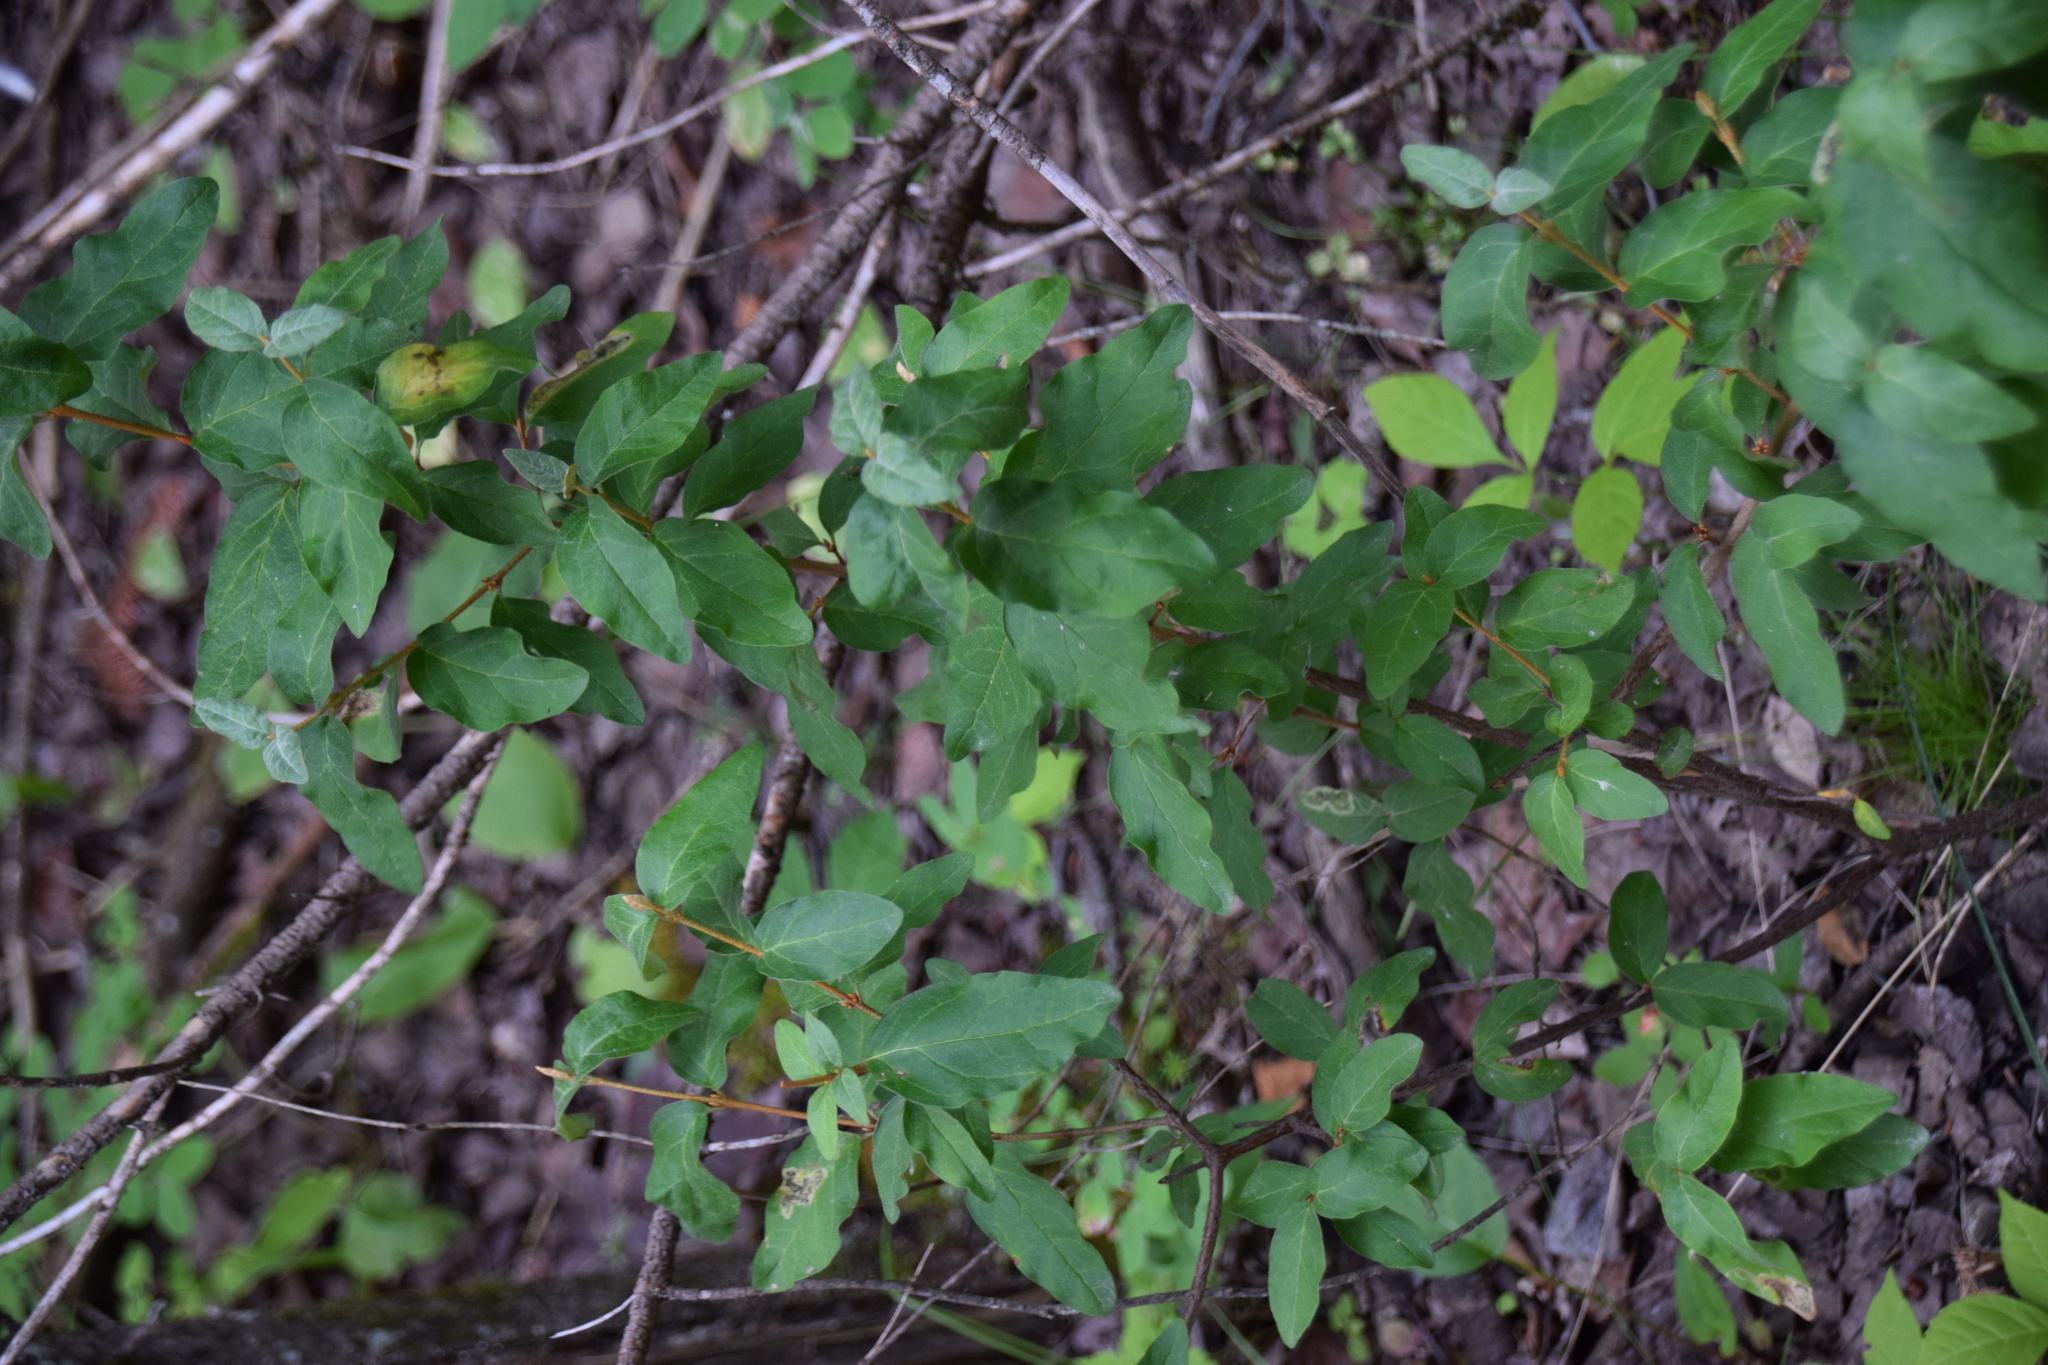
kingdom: Plantae
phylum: Tracheophyta
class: Magnoliopsida
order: Rosales
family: Elaeagnaceae
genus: Shepherdia
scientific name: Shepherdia canadensis
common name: Soapberry
